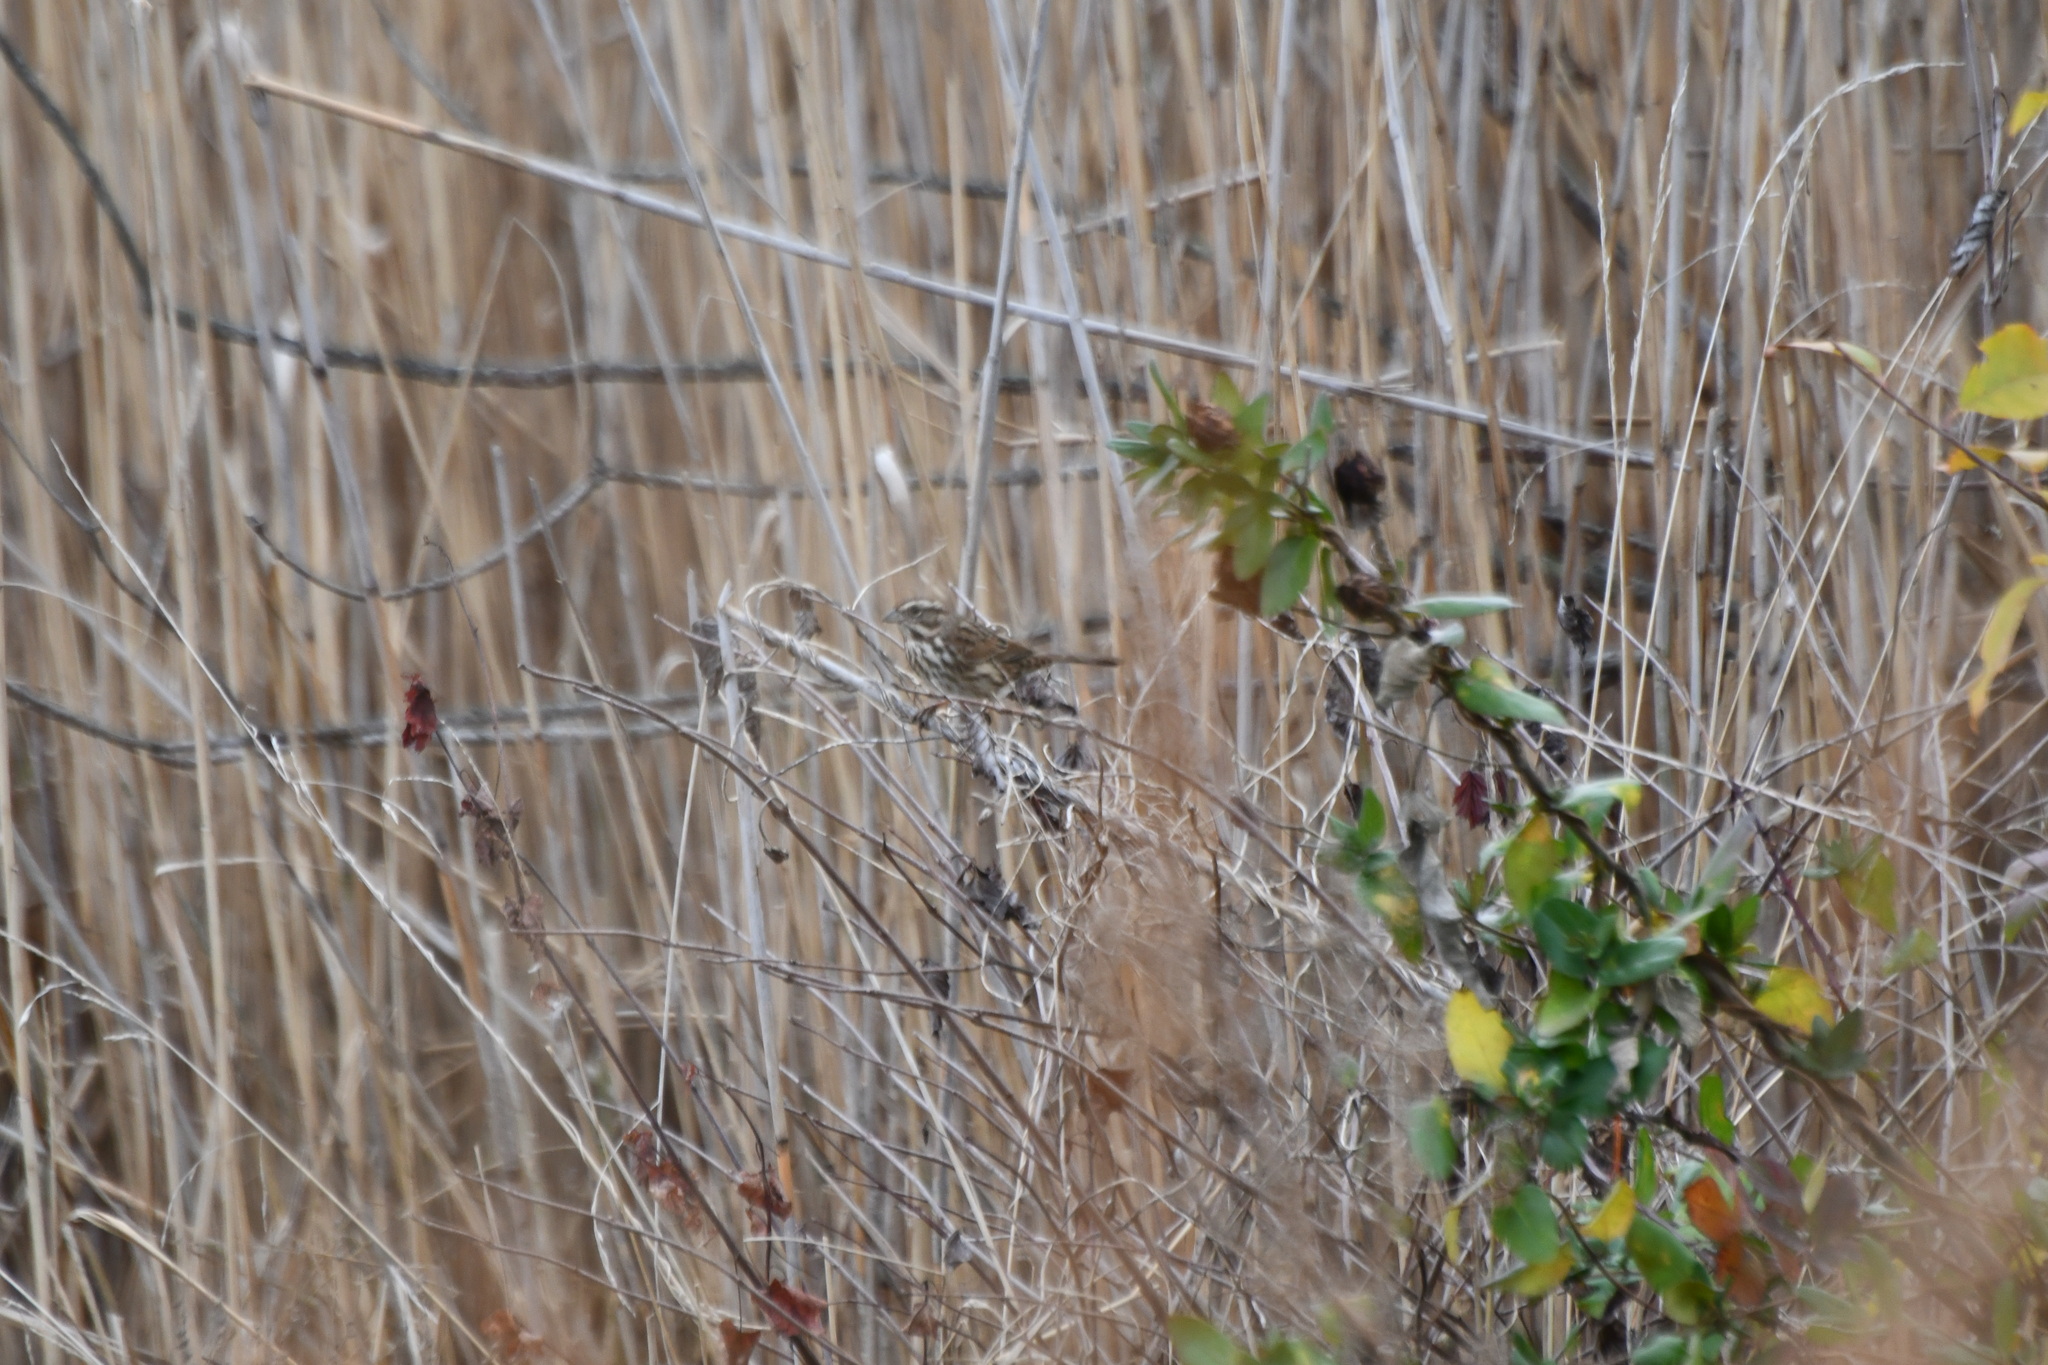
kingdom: Animalia
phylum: Chordata
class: Aves
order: Passeriformes
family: Passerellidae
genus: Melospiza
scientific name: Melospiza melodia
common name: Song sparrow
